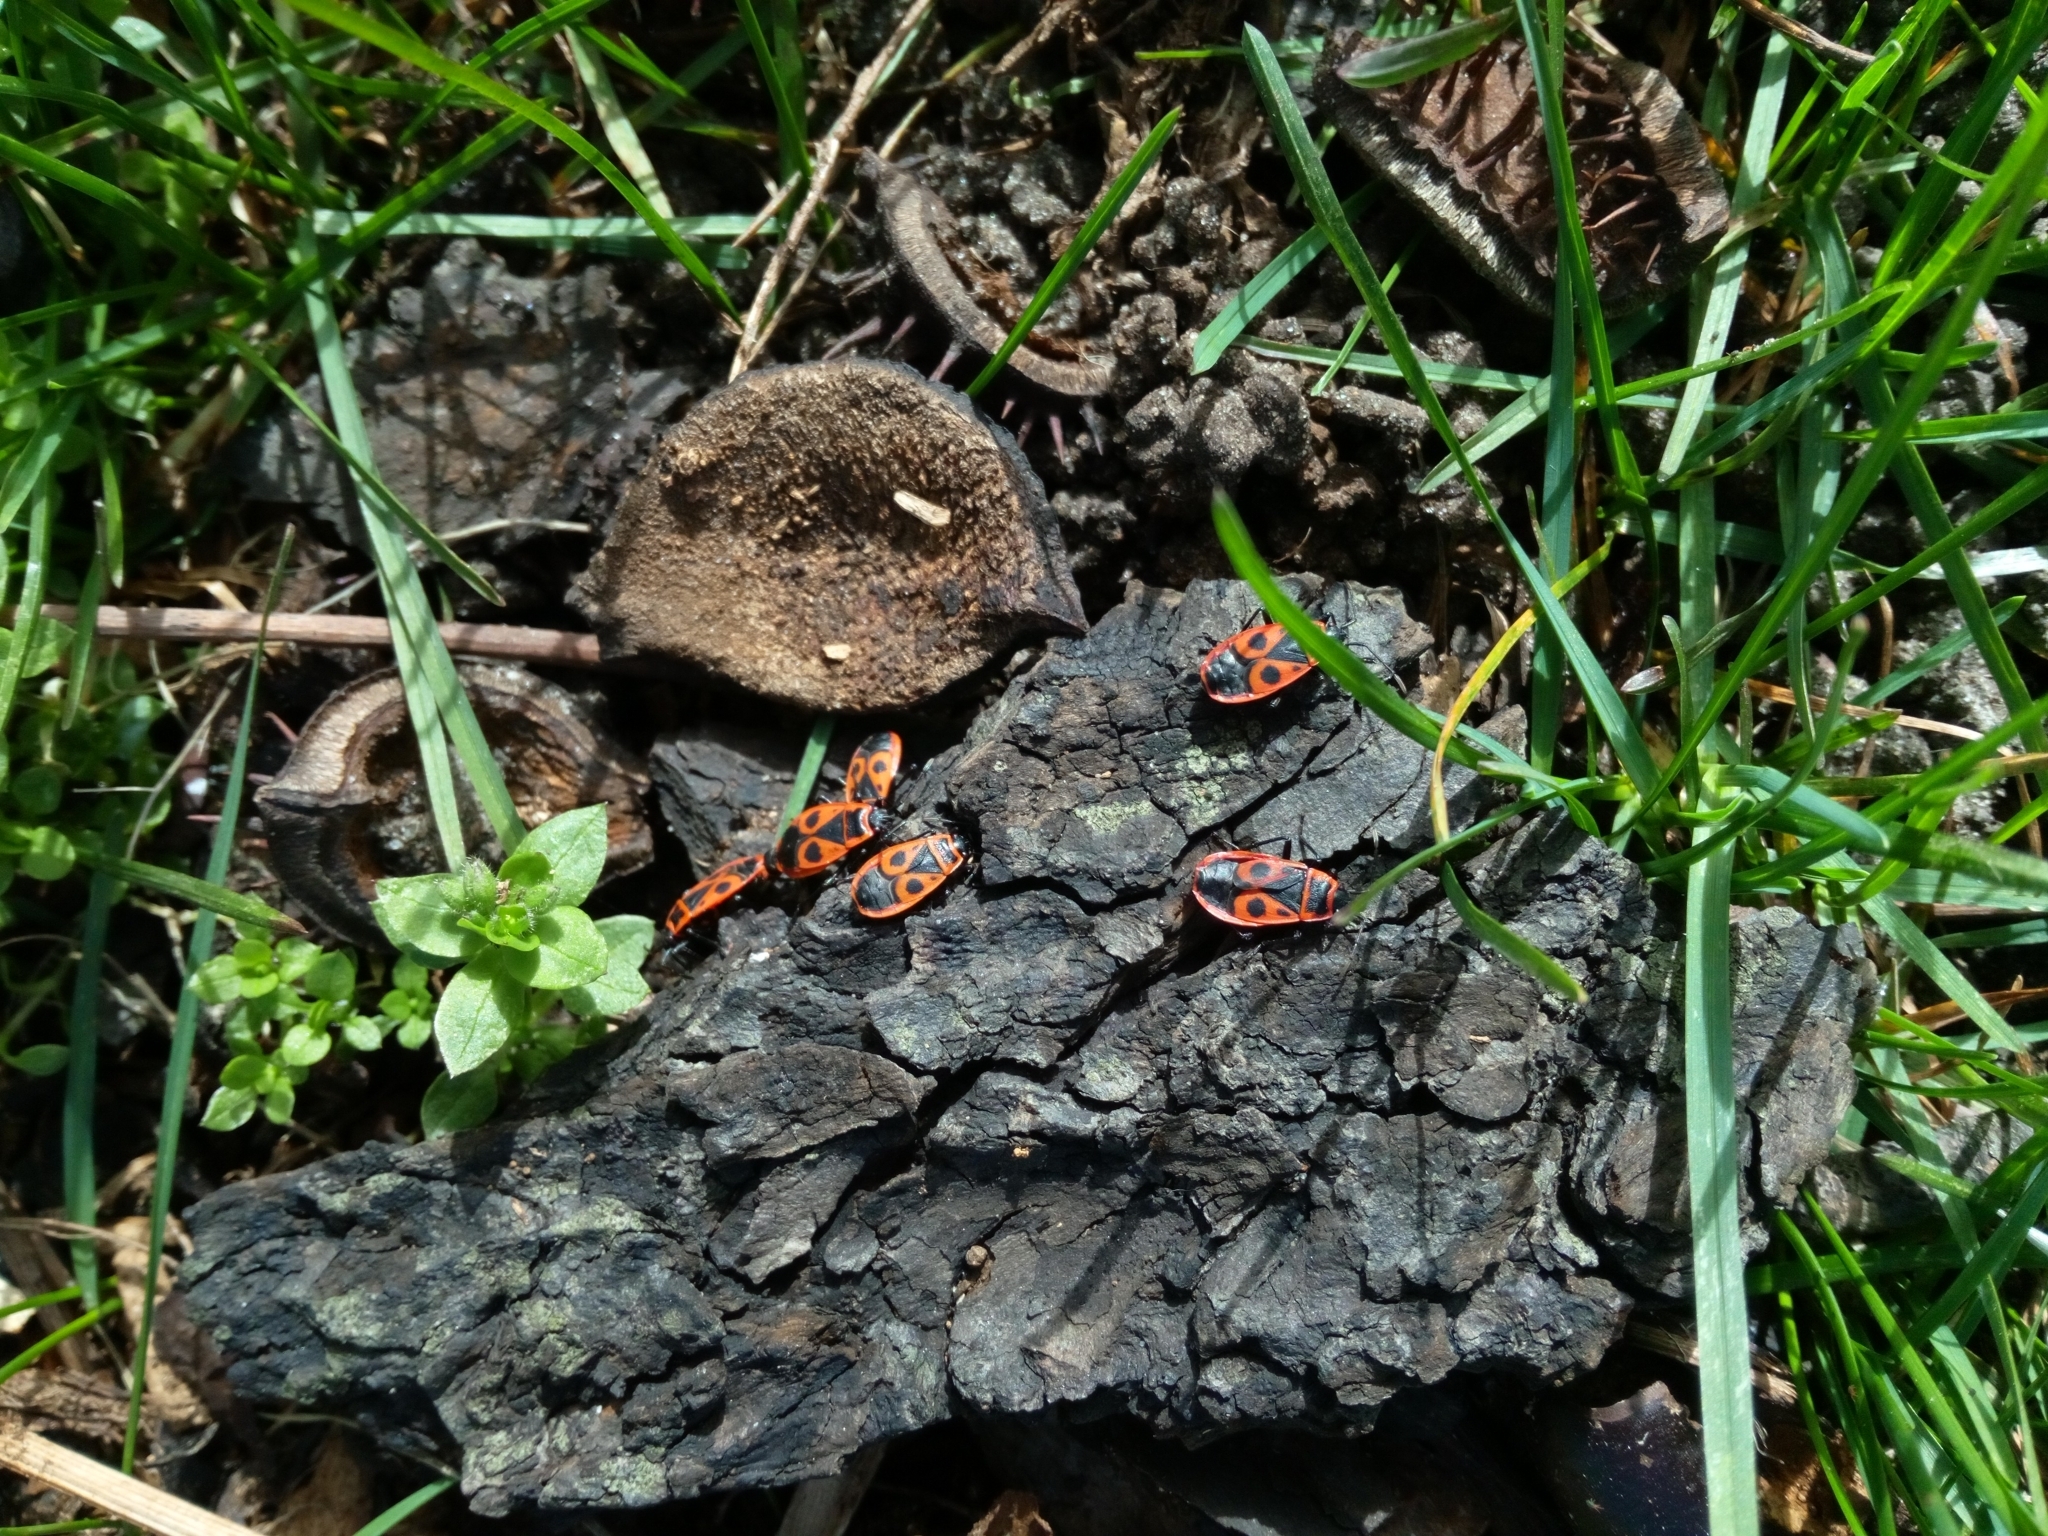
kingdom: Animalia
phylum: Arthropoda
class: Insecta
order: Hemiptera
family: Pyrrhocoridae
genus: Pyrrhocoris
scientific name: Pyrrhocoris apterus
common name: Firebug
